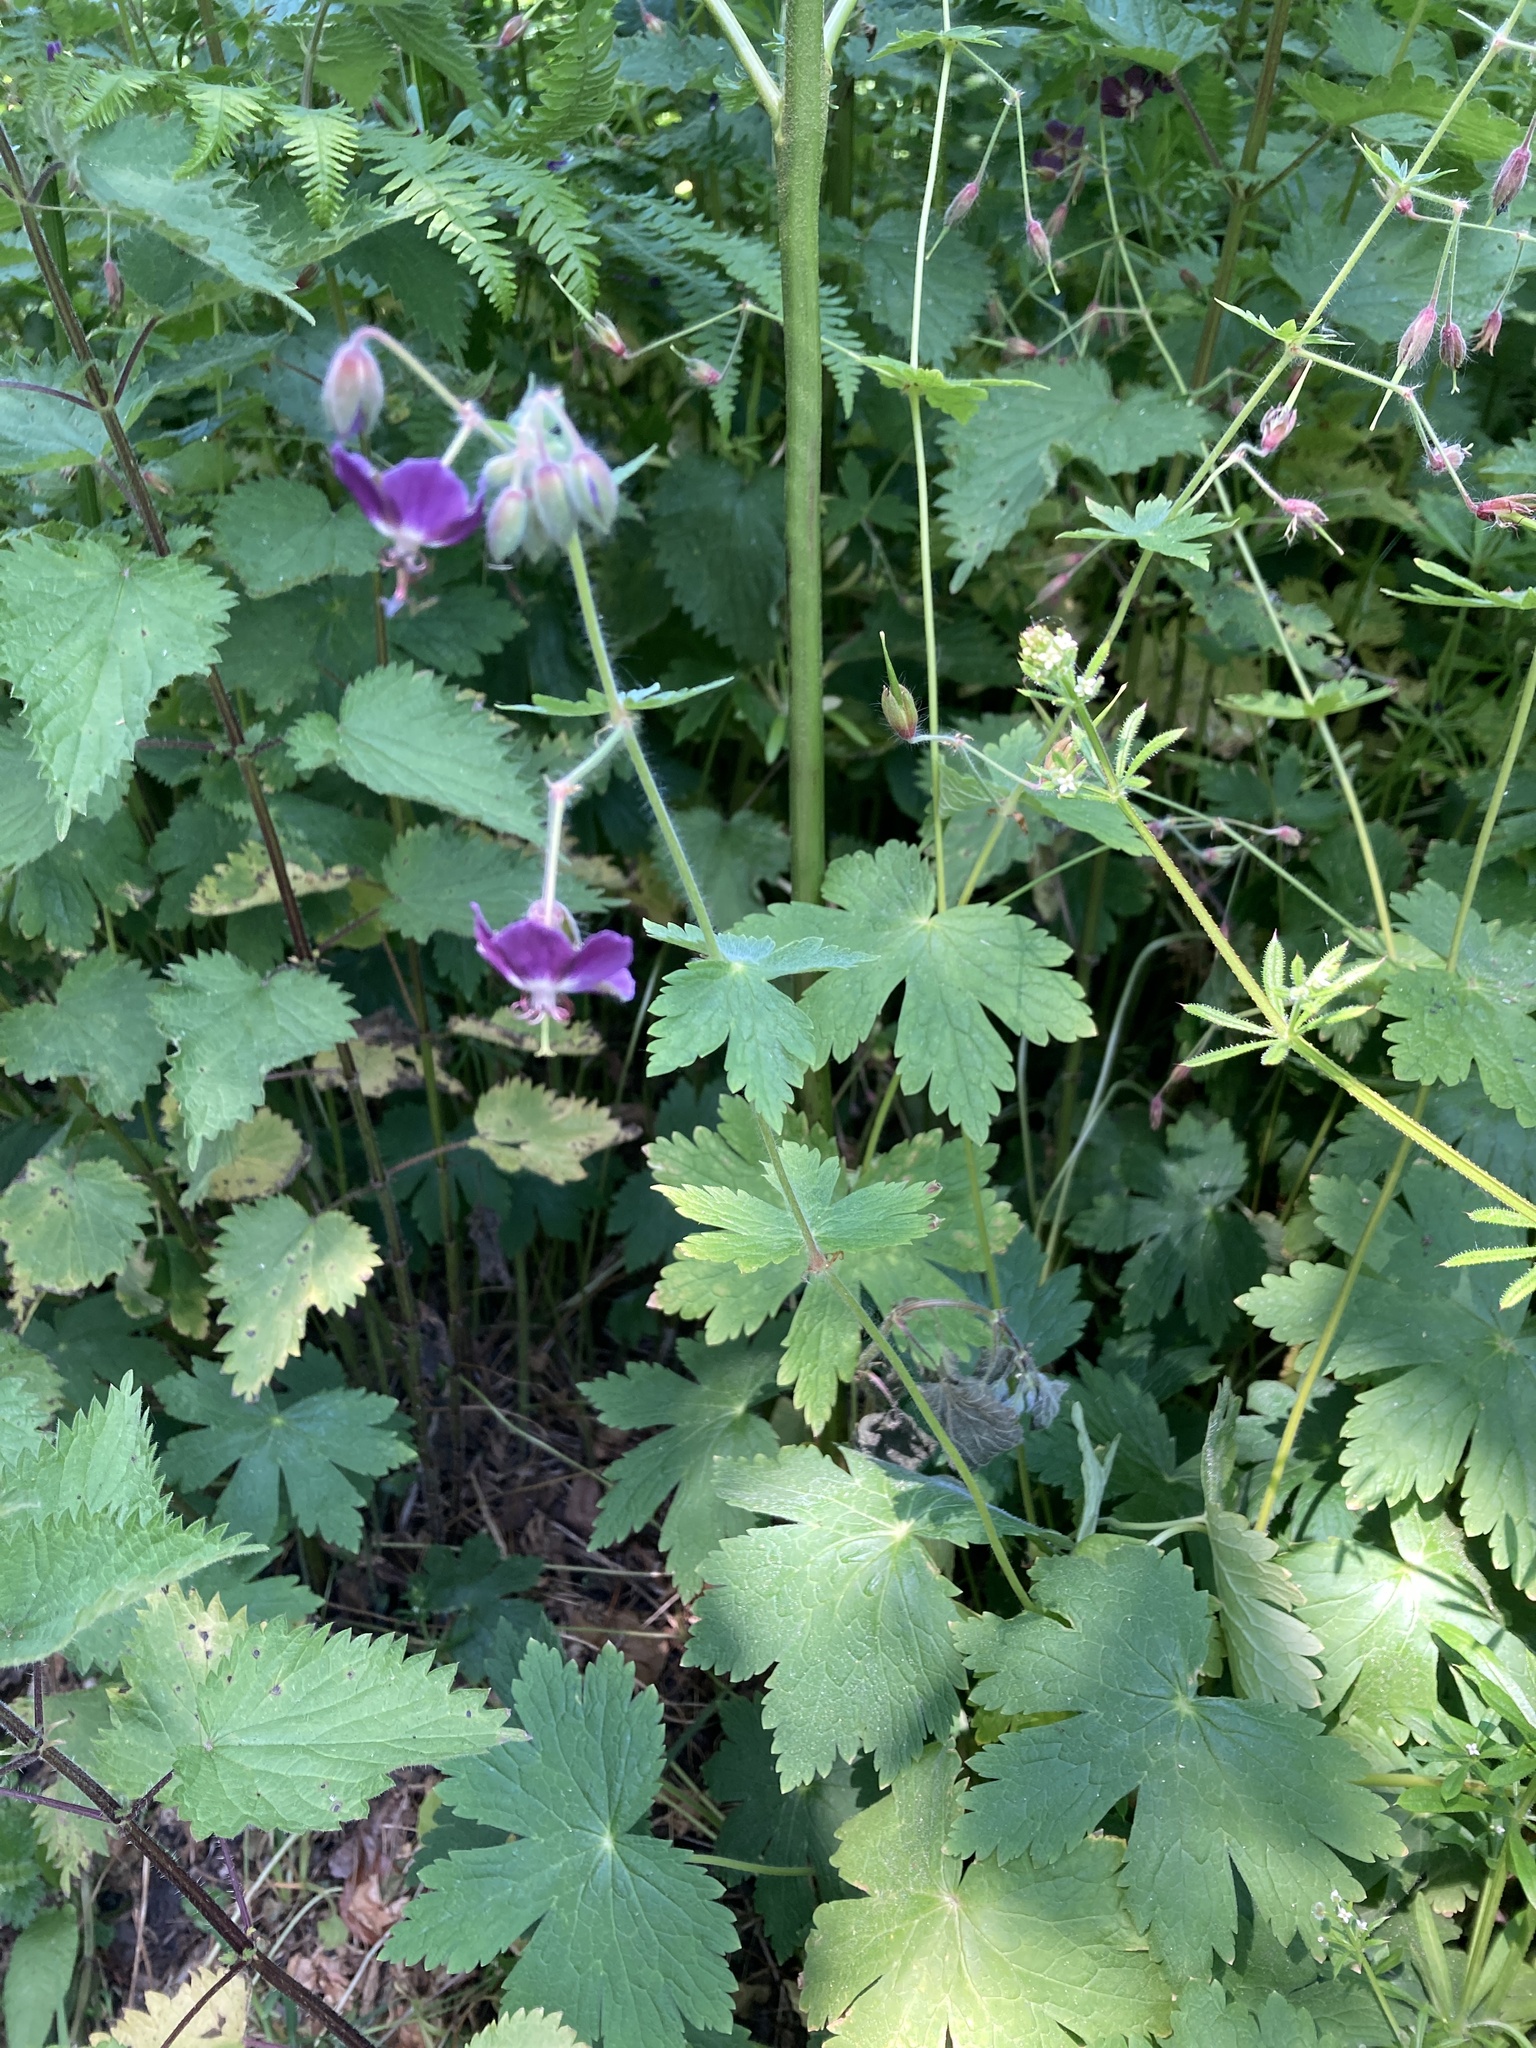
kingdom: Plantae
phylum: Tracheophyta
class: Magnoliopsida
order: Geraniales
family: Geraniaceae
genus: Geranium
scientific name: Geranium phaeum
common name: Dusky crane's-bill
